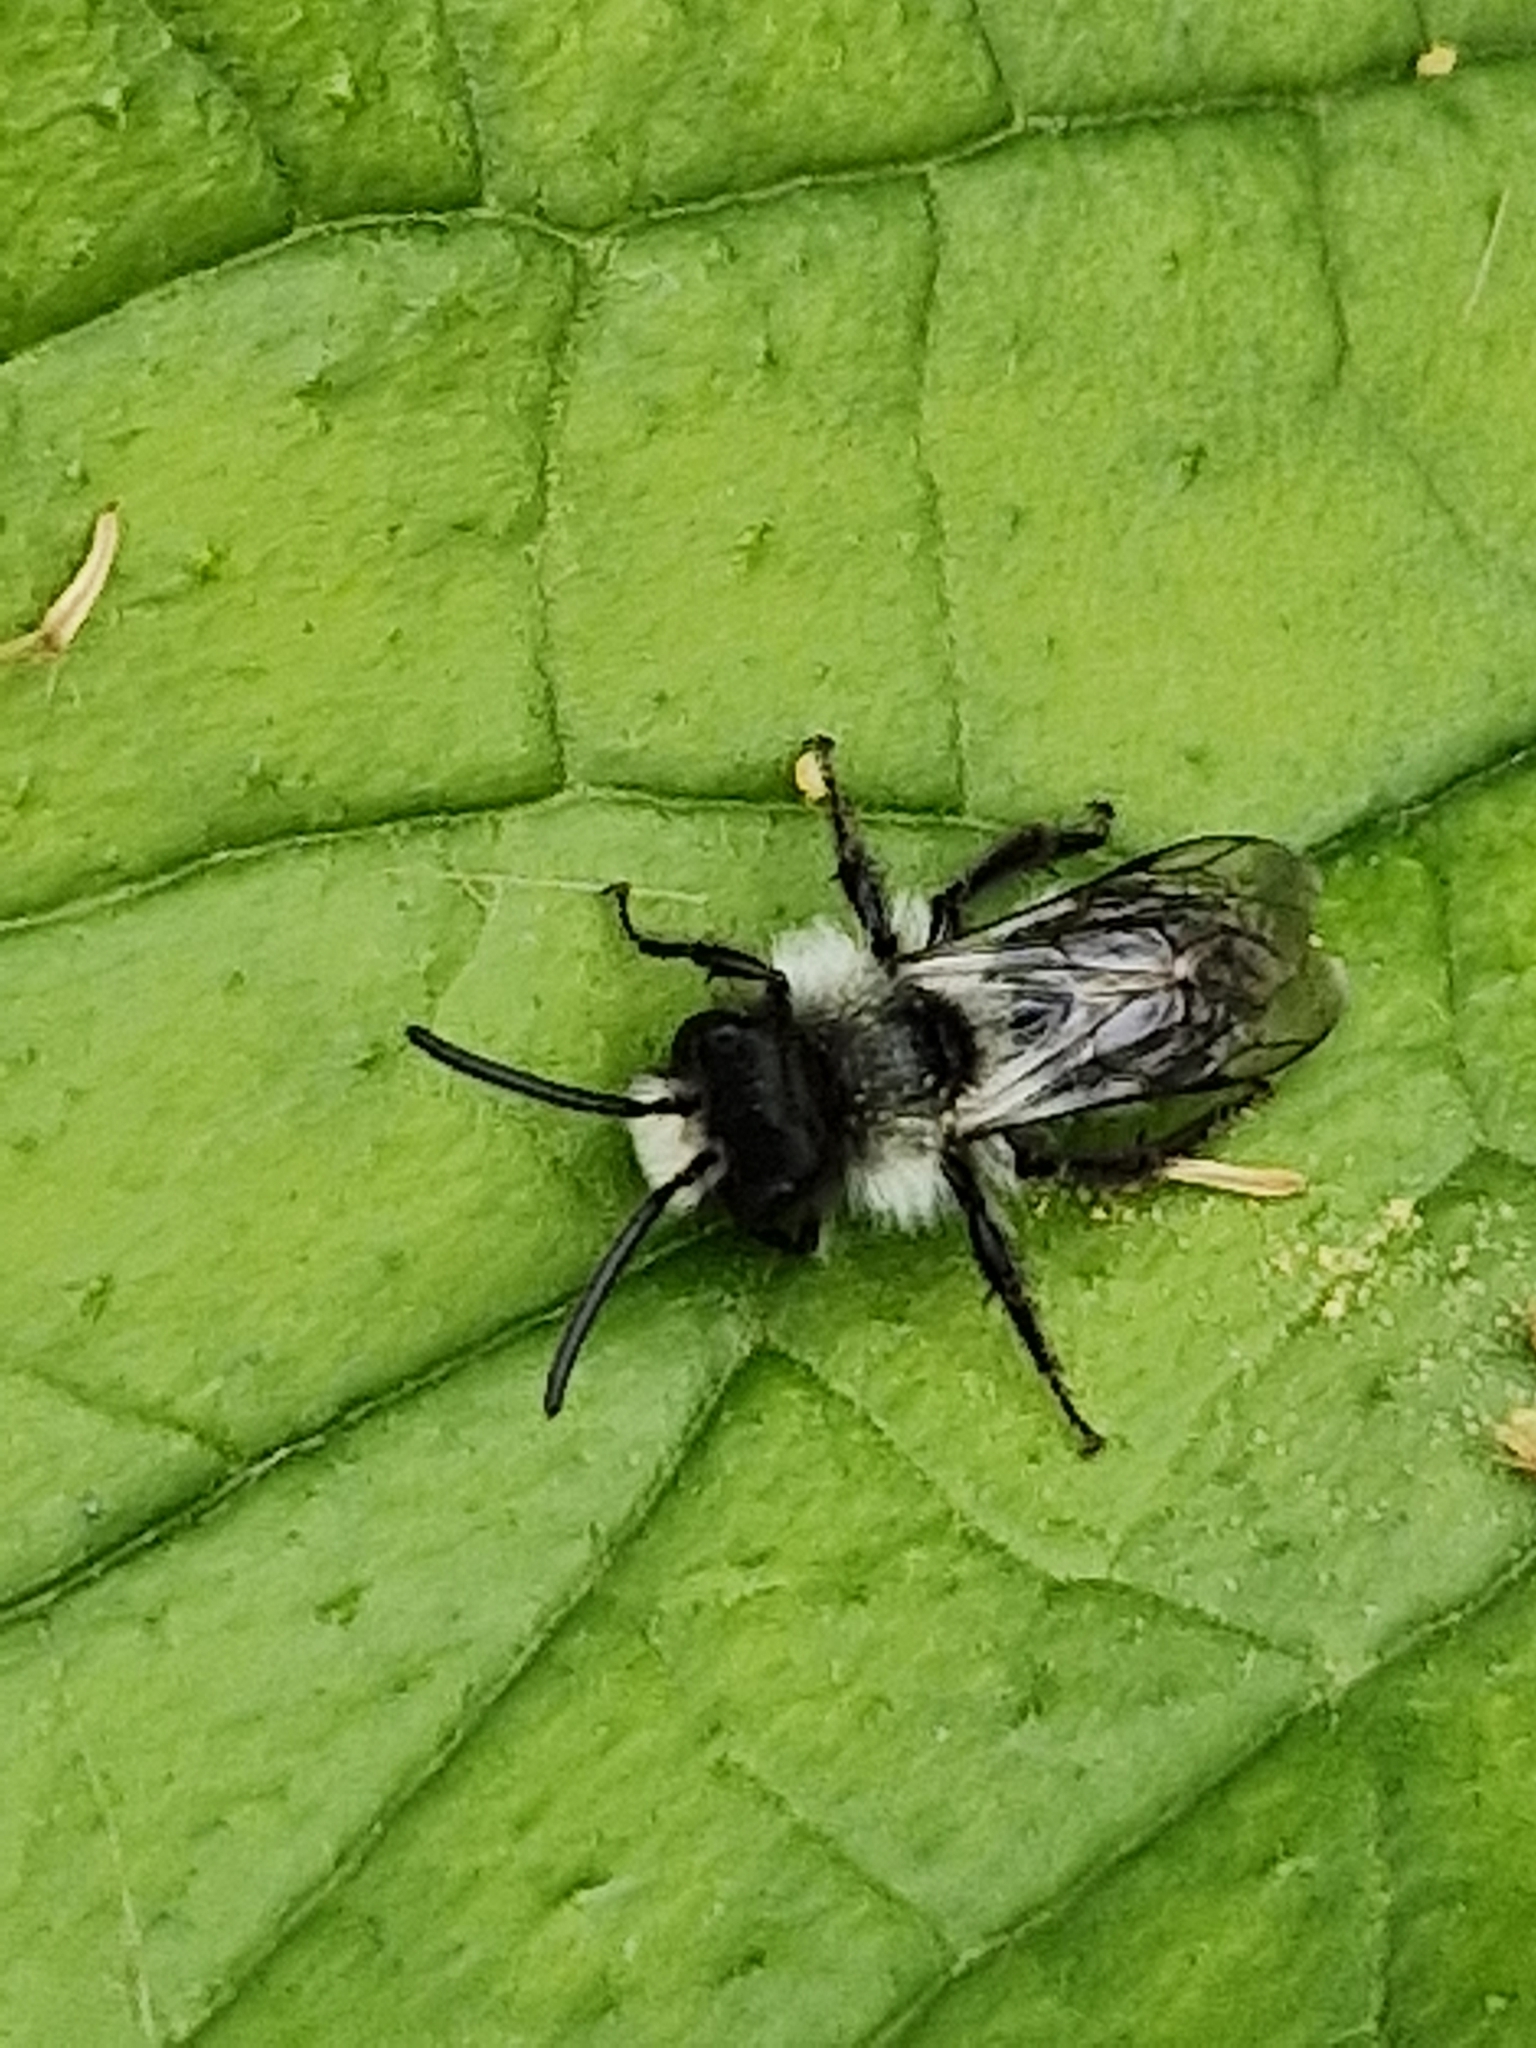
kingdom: Animalia
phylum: Arthropoda
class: Insecta
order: Hymenoptera
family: Andrenidae
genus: Andrena
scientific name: Andrena cineraria
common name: Ashy mining bee
